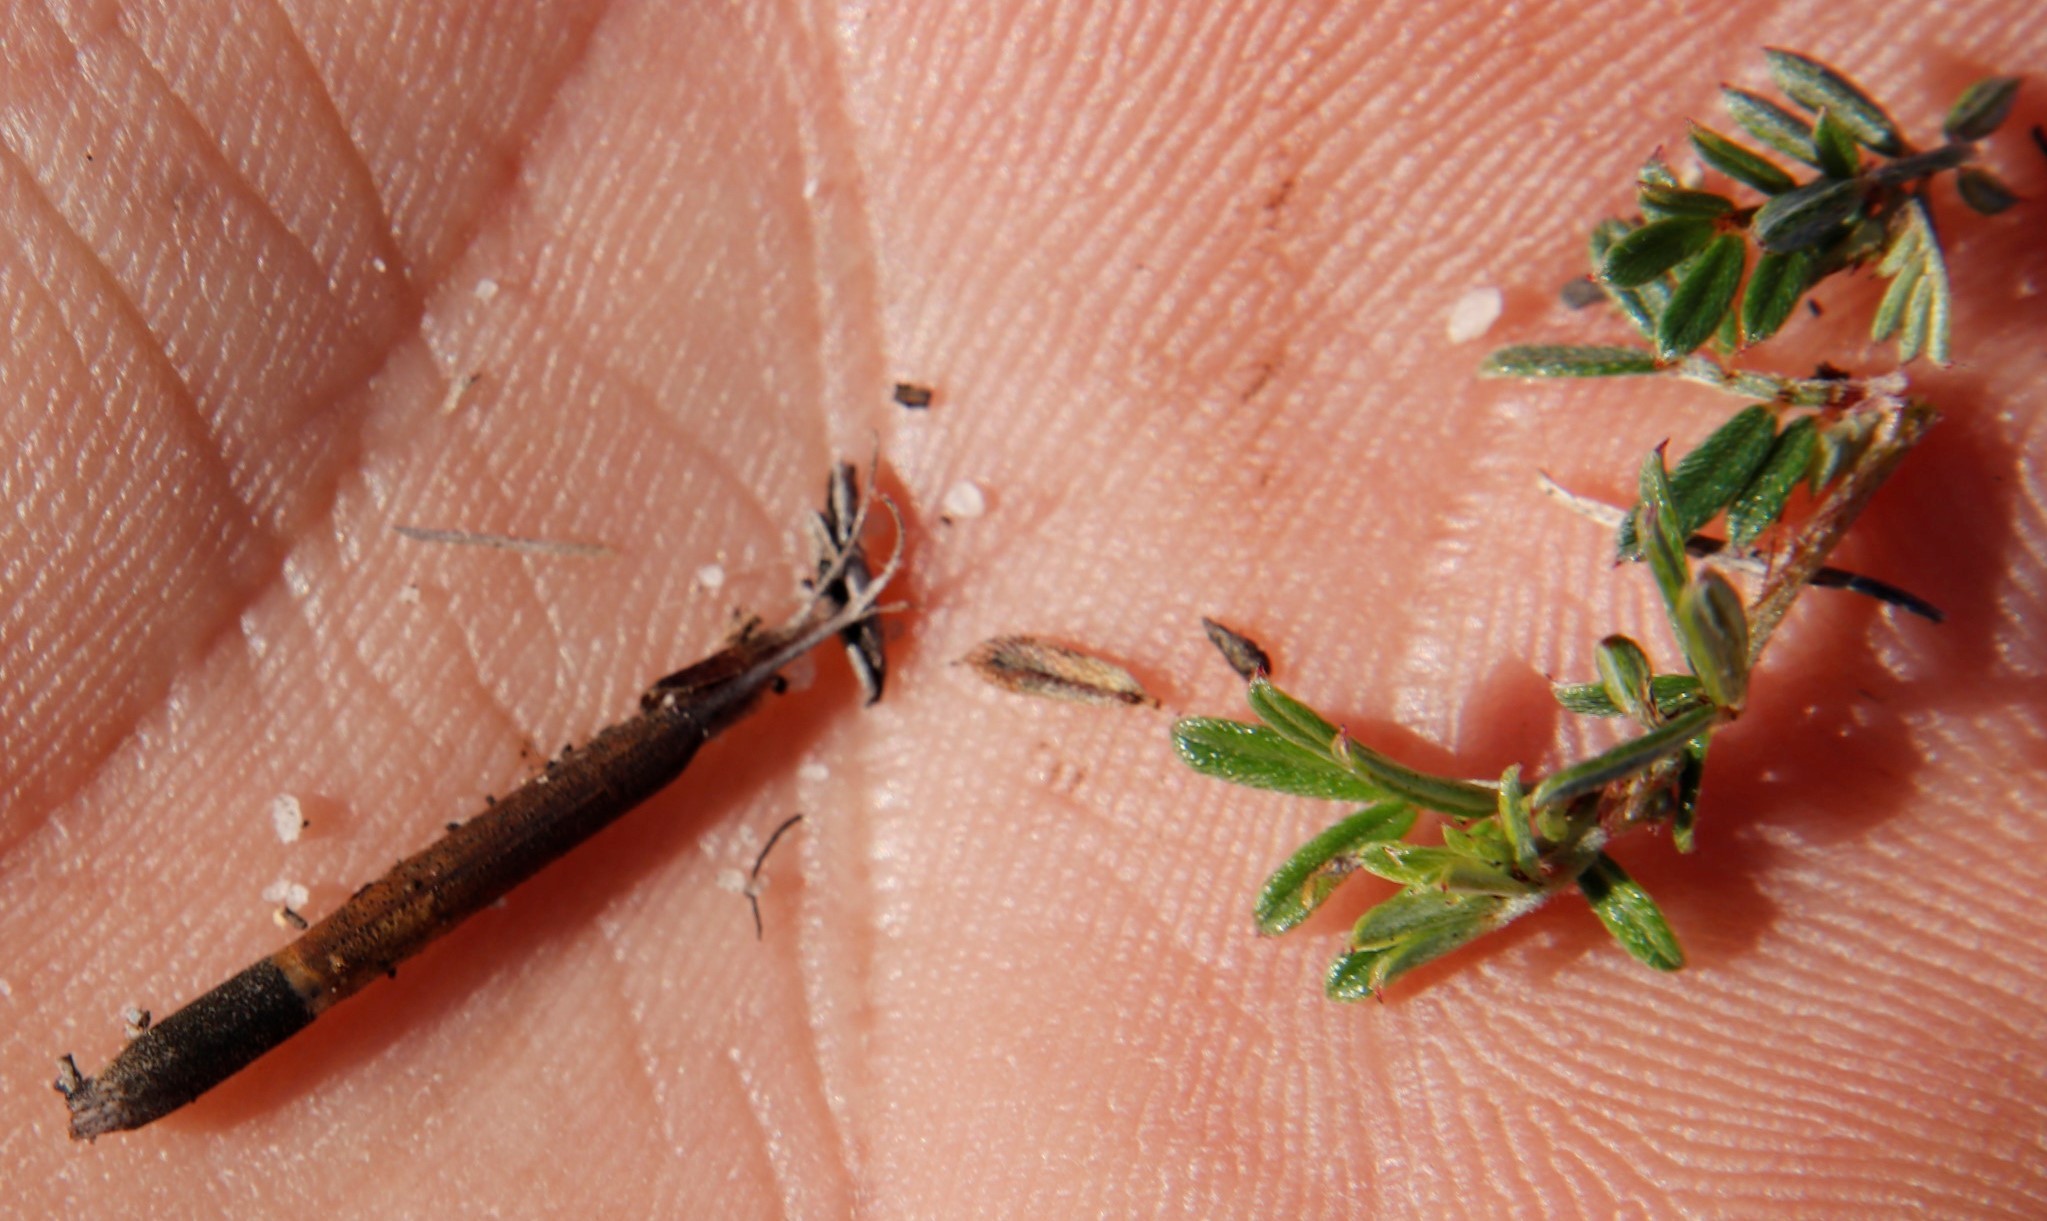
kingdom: Plantae
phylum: Tracheophyta
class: Magnoliopsida
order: Fabales
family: Fabaceae
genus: Indigofera
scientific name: Indigofera angustifolia
